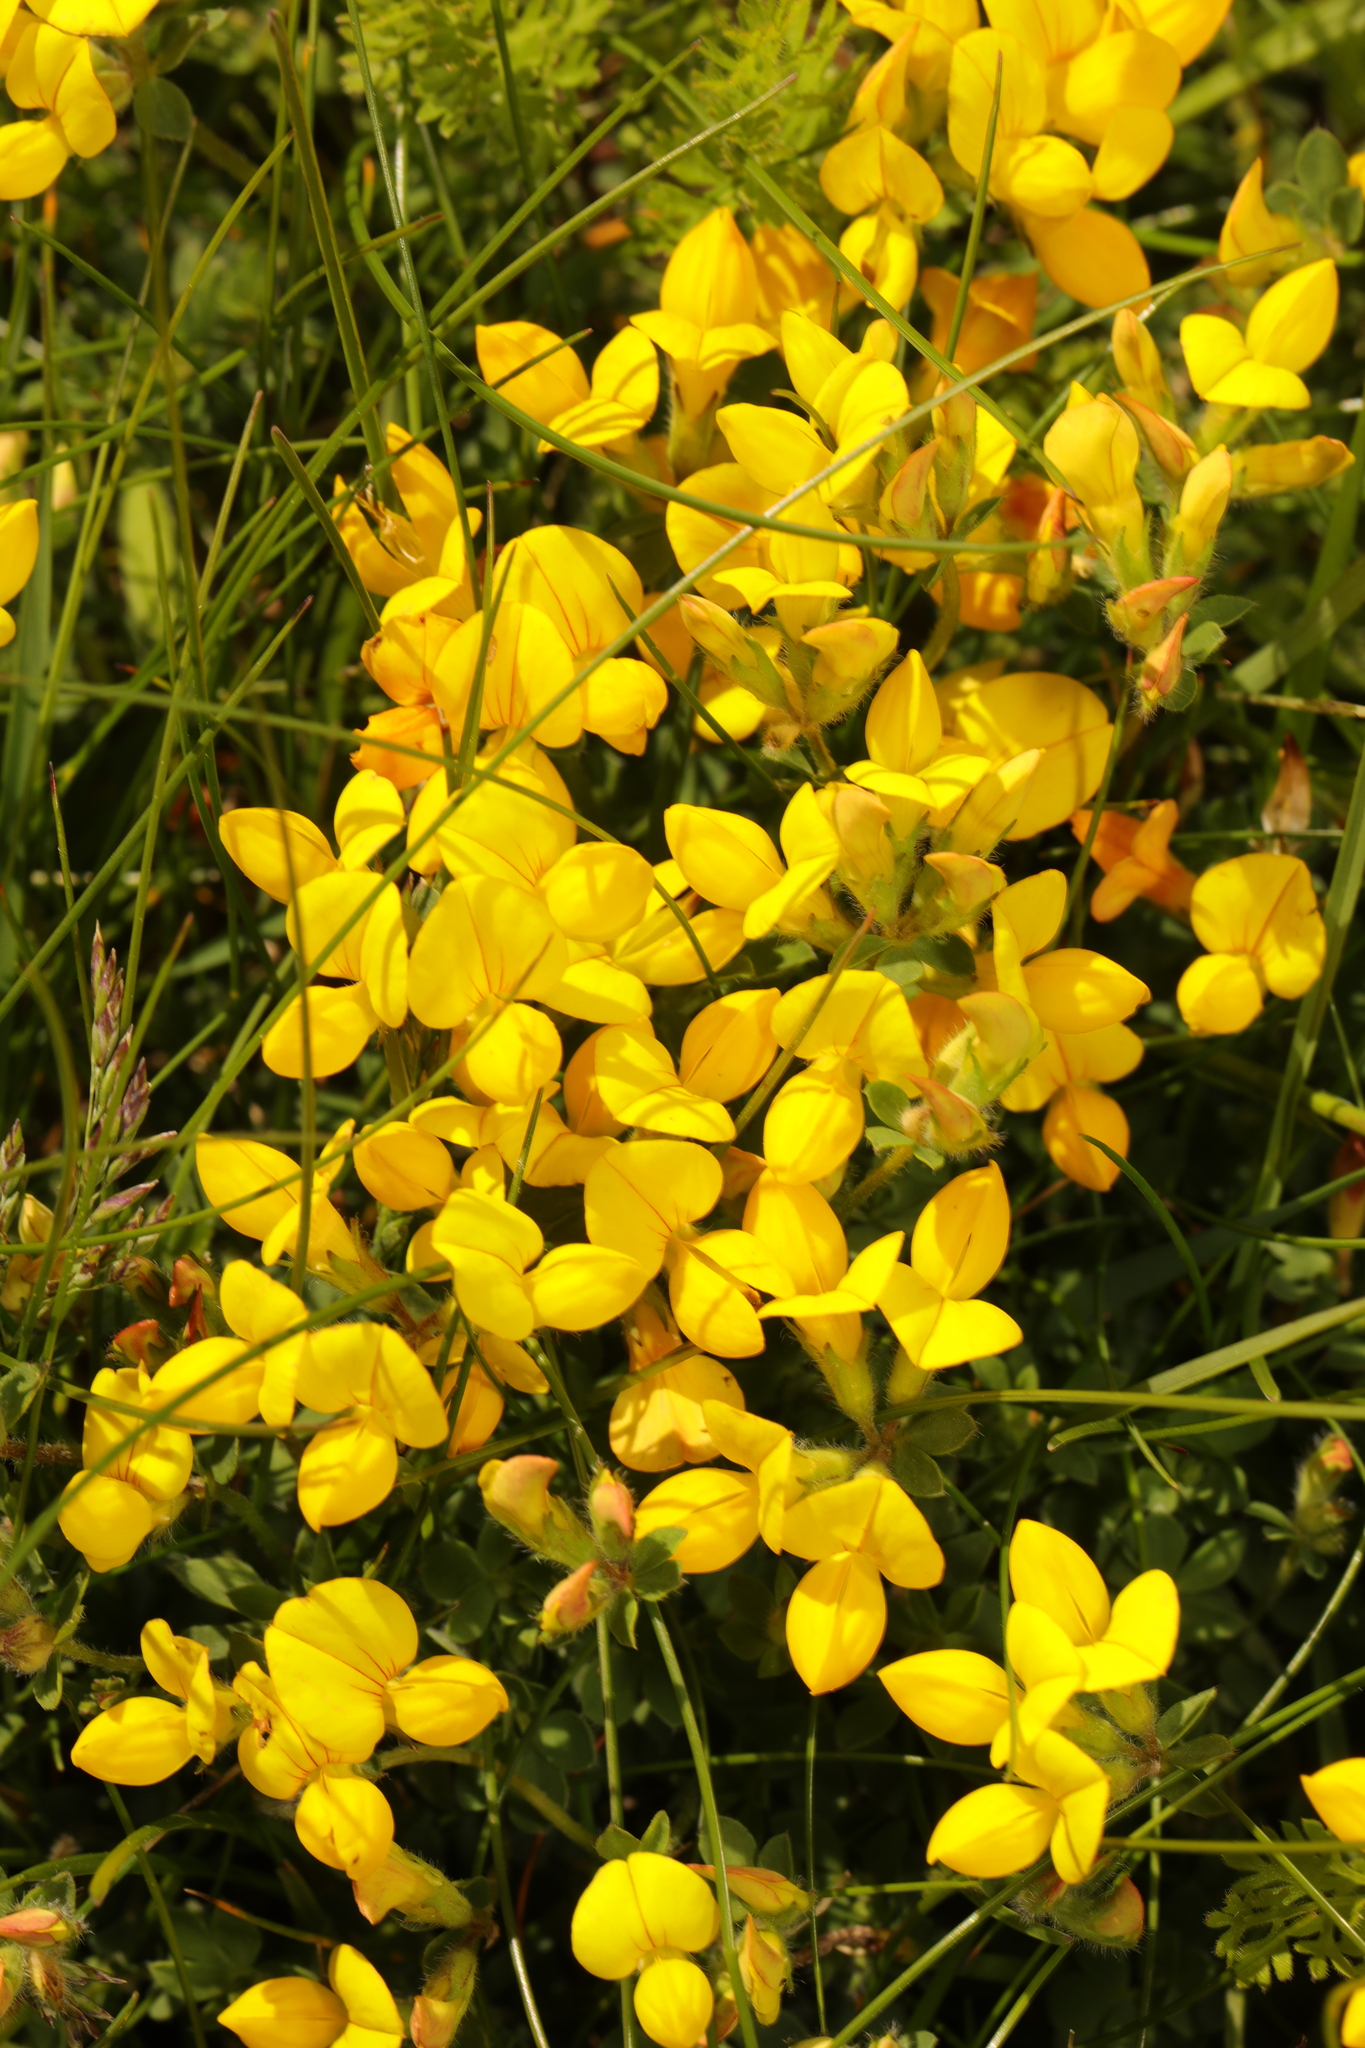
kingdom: Plantae
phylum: Tracheophyta
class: Magnoliopsida
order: Fabales
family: Fabaceae
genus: Lotus
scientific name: Lotus corniculatus
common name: Common bird's-foot-trefoil
